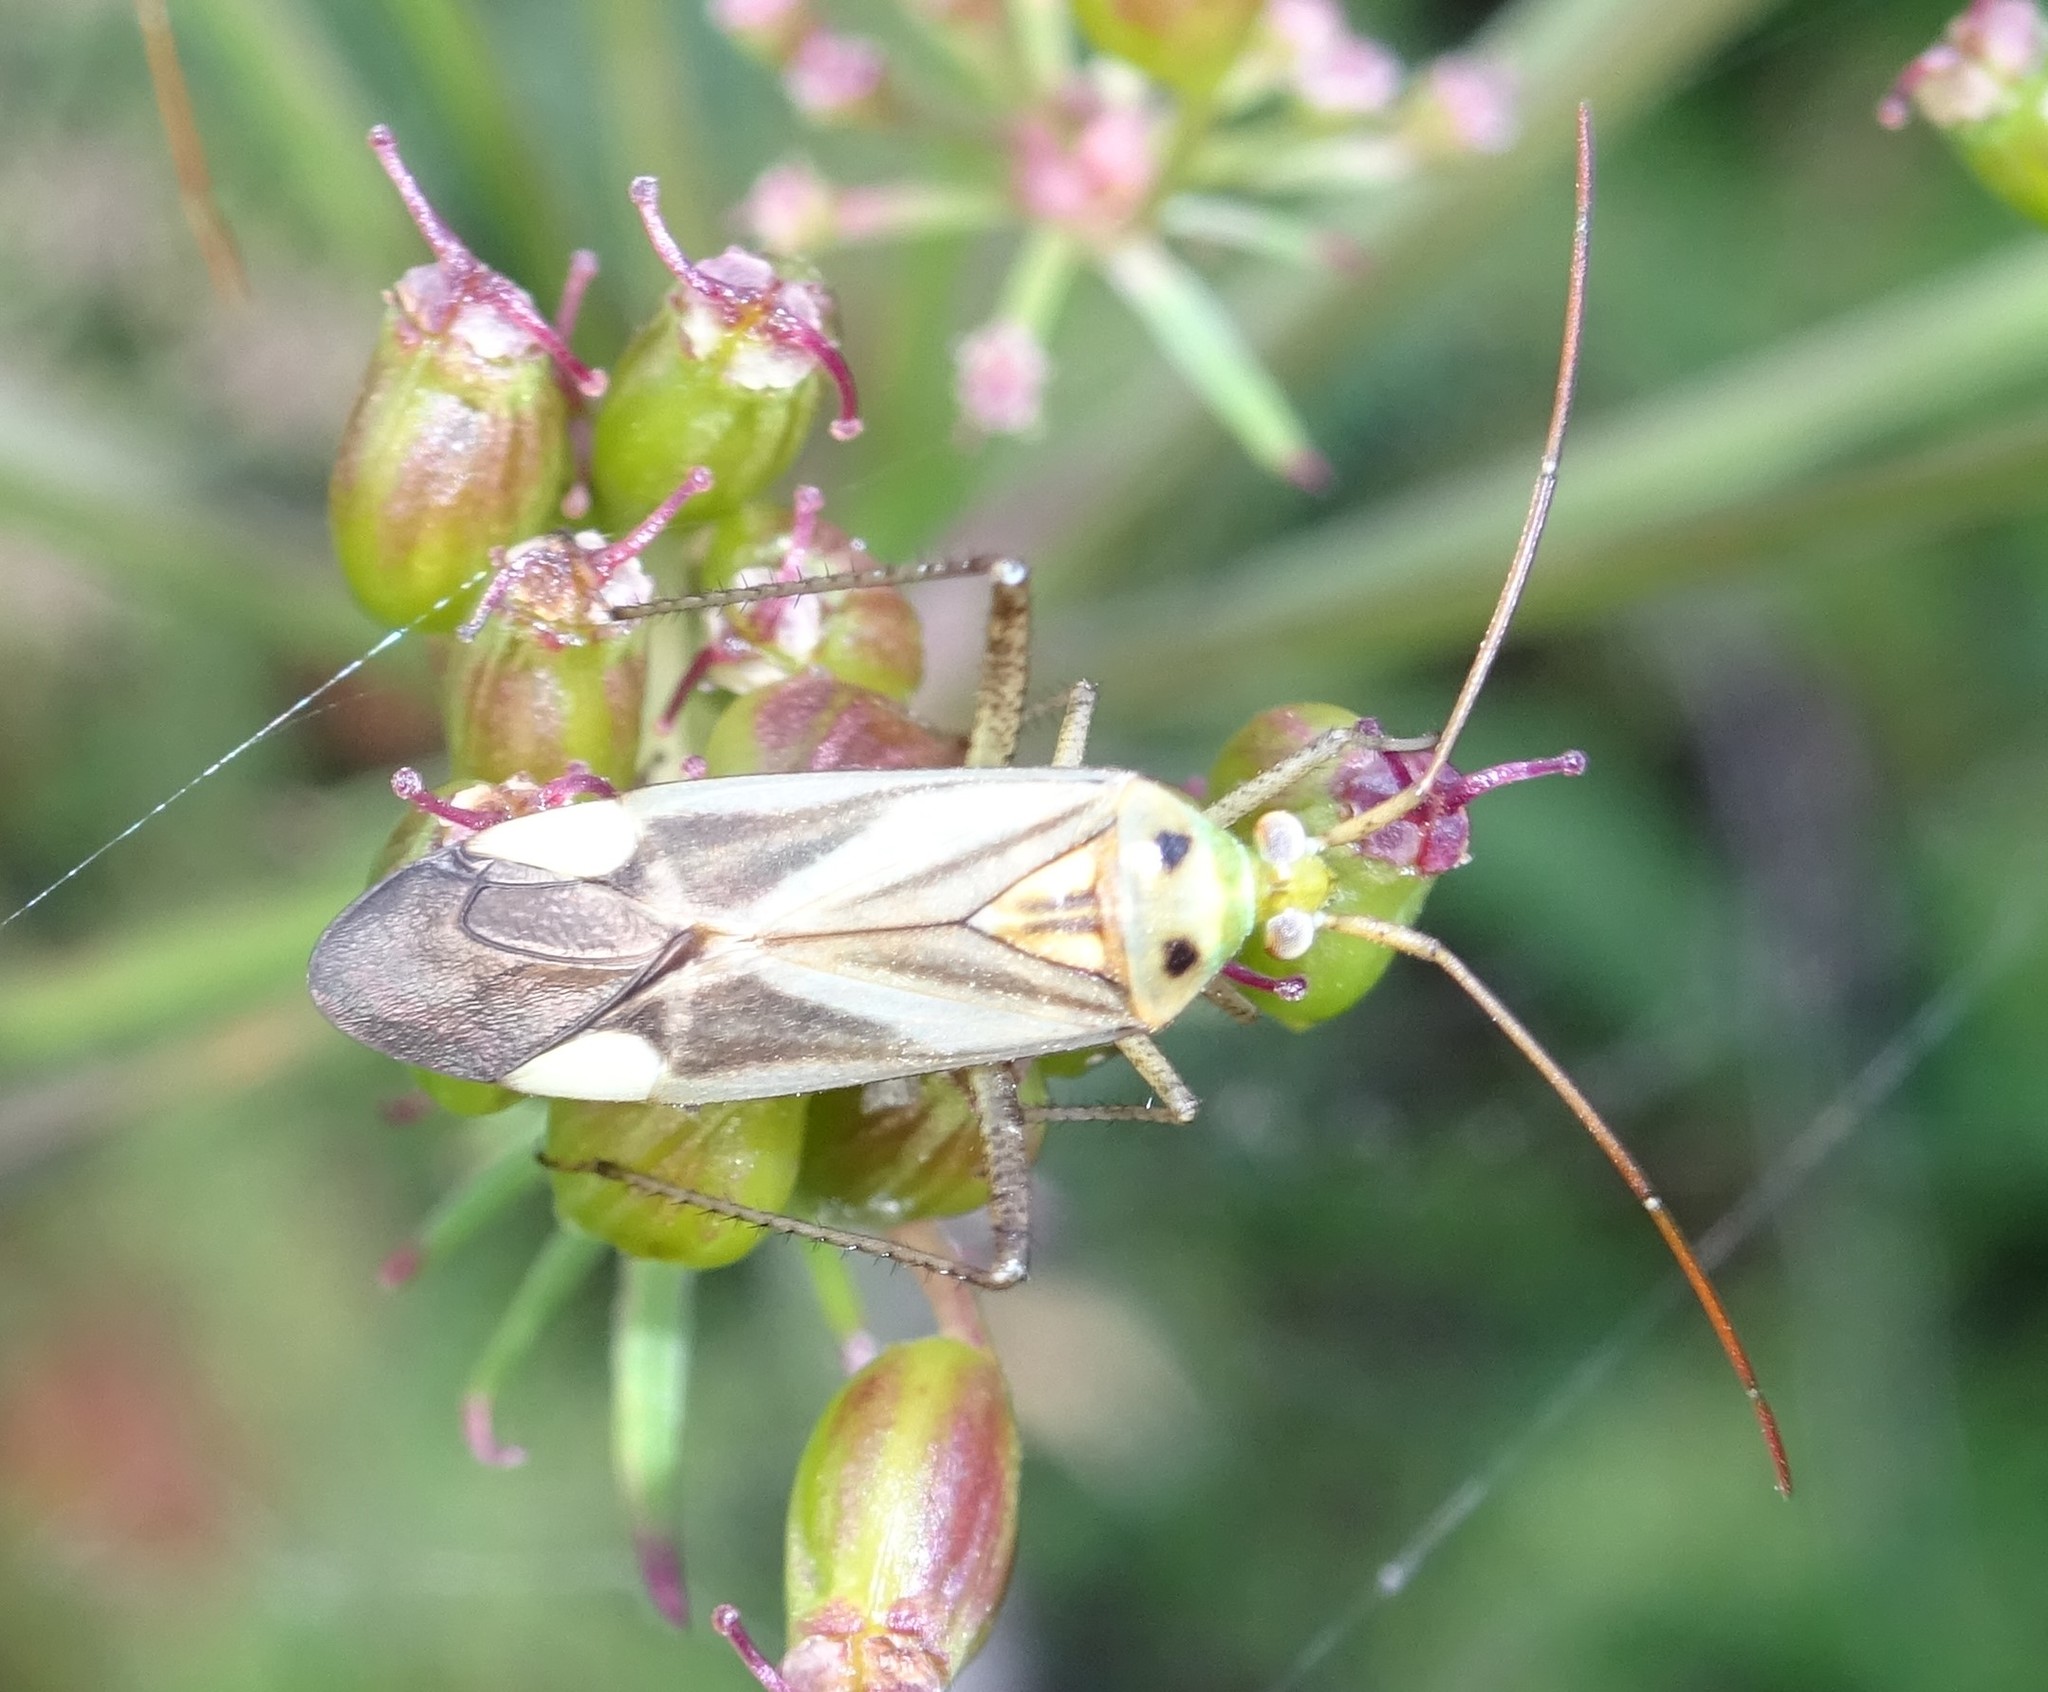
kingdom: Animalia
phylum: Arthropoda
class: Insecta
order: Hemiptera
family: Miridae
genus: Adelphocoris
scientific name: Adelphocoris lineolatus
